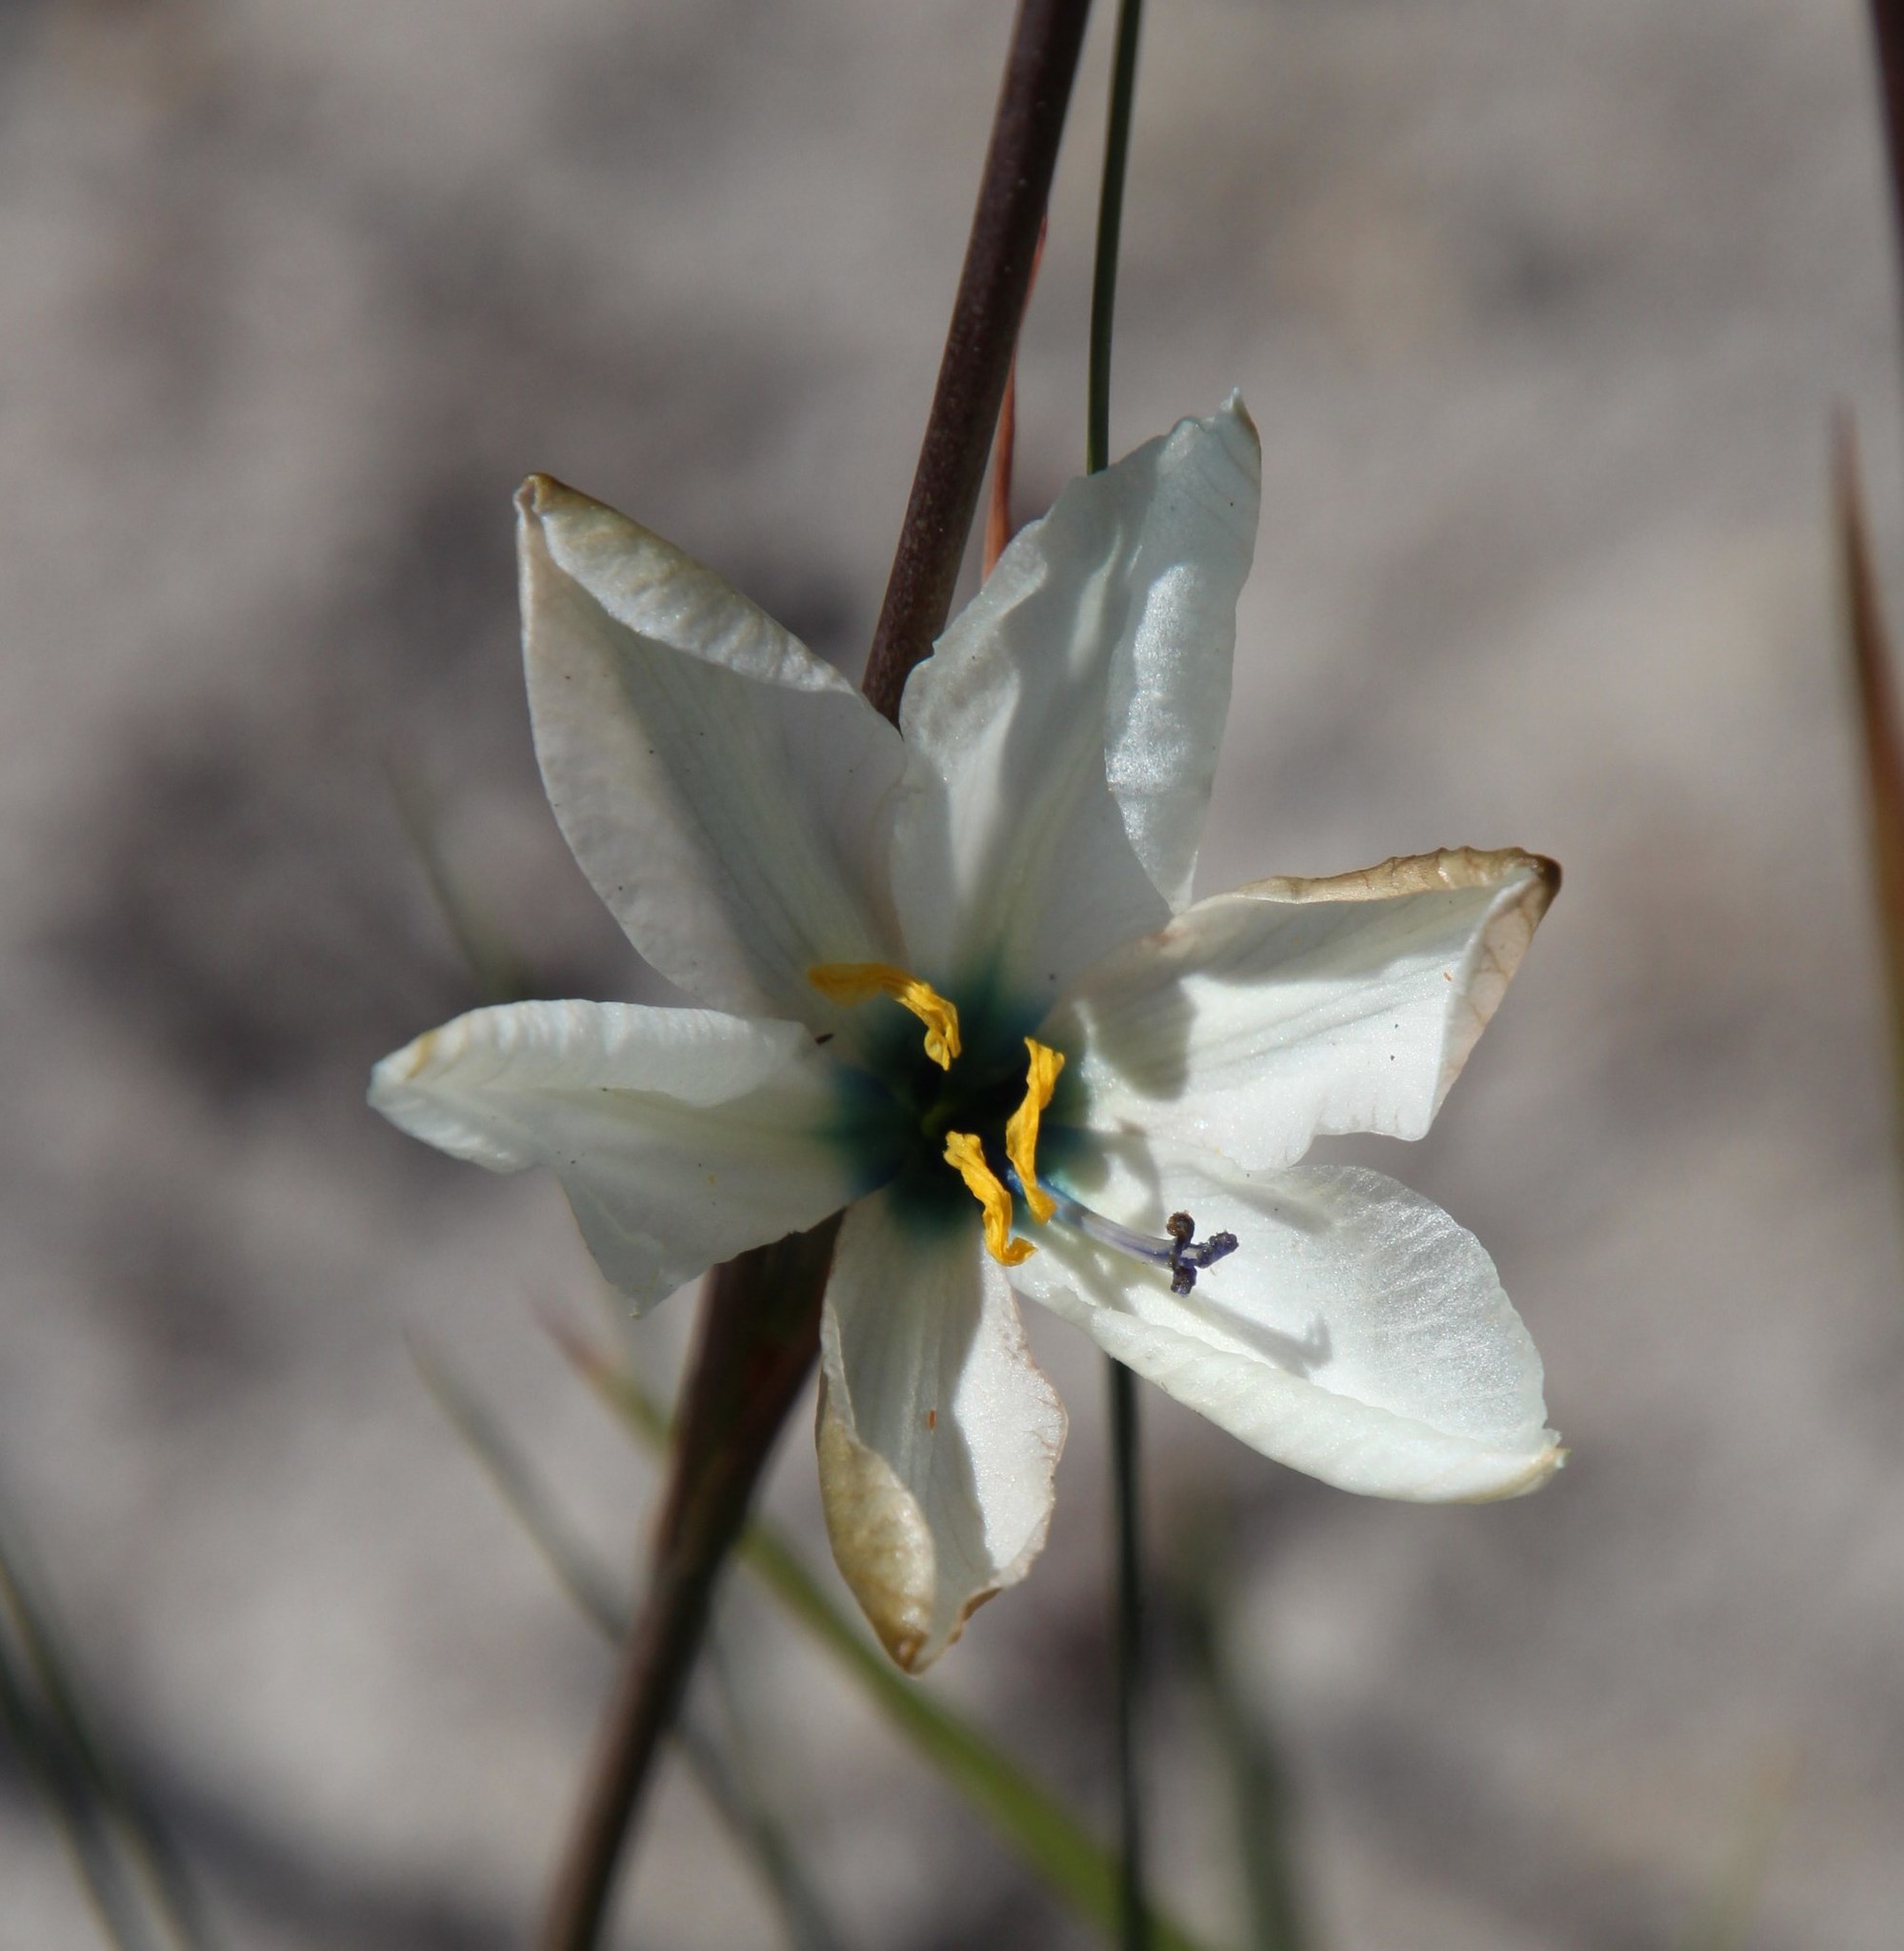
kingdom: Plantae
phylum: Tracheophyta
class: Liliopsida
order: Asparagales
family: Iridaceae
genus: Aristea
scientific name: Aristea cantharophila
